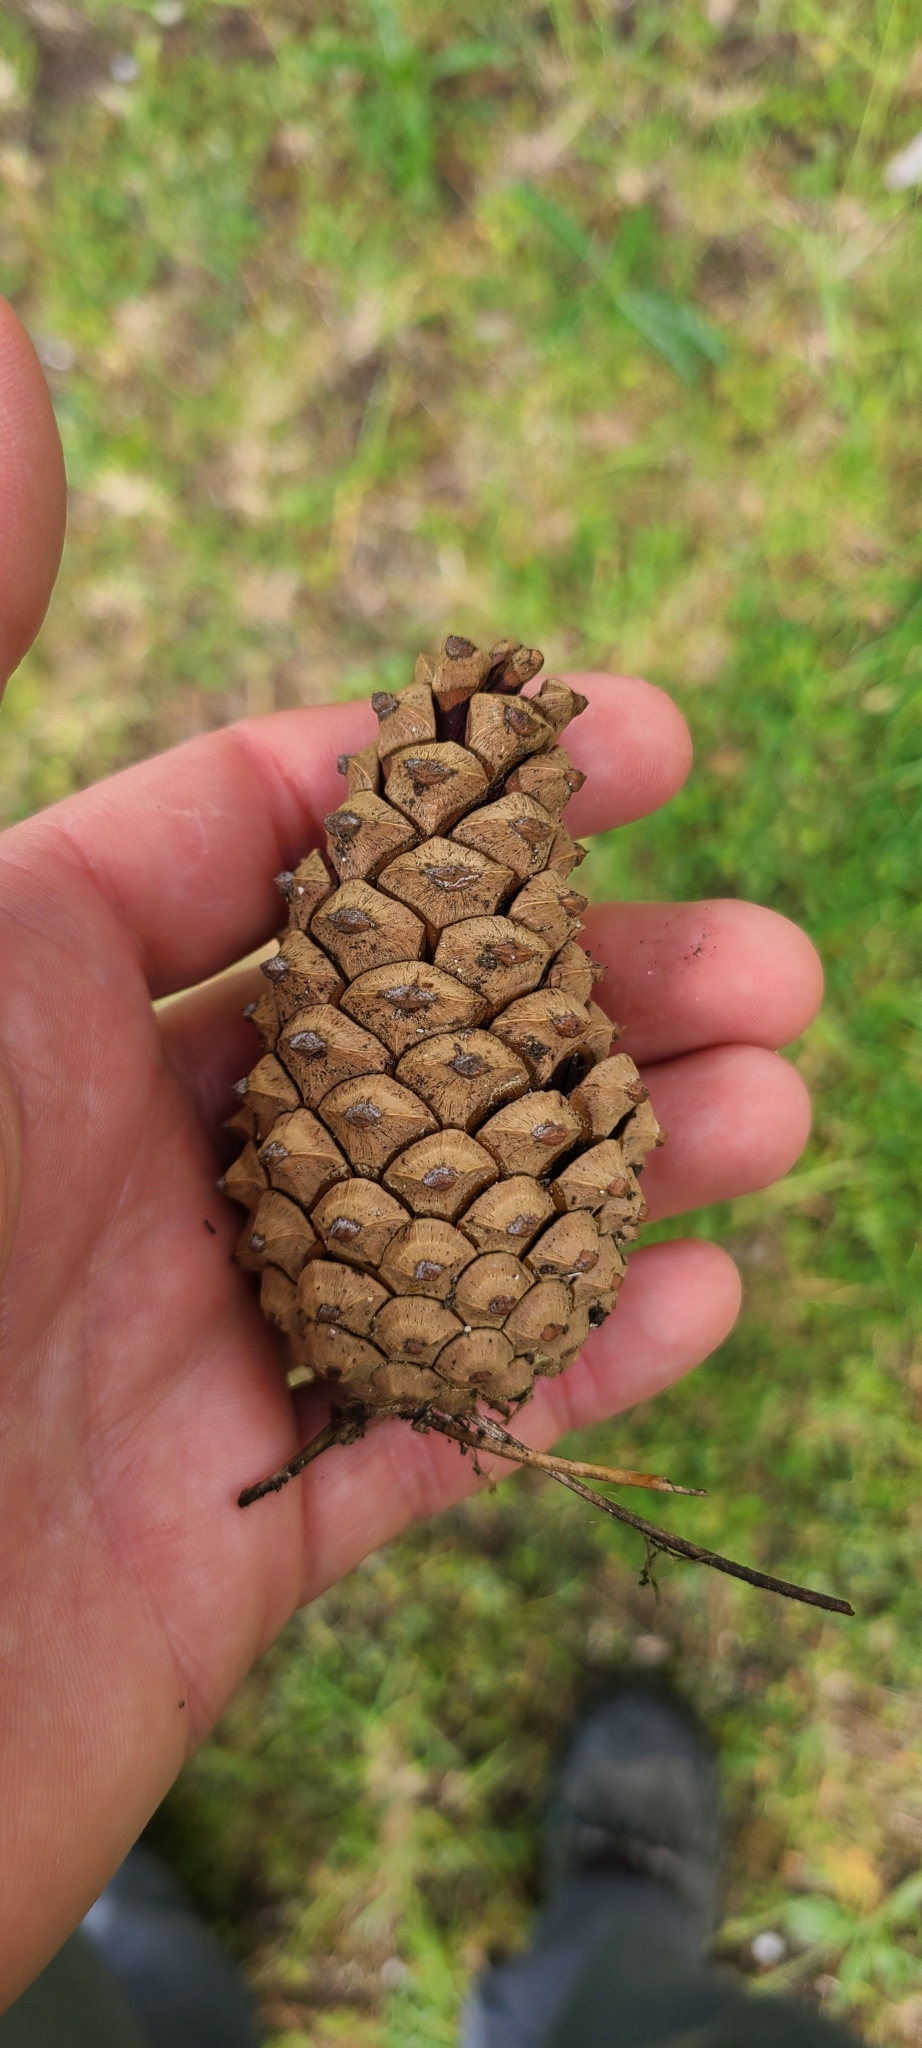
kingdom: Plantae
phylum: Tracheophyta
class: Pinopsida
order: Pinales
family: Pinaceae
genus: Pinus
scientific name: Pinus nigra
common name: Austrian pine
